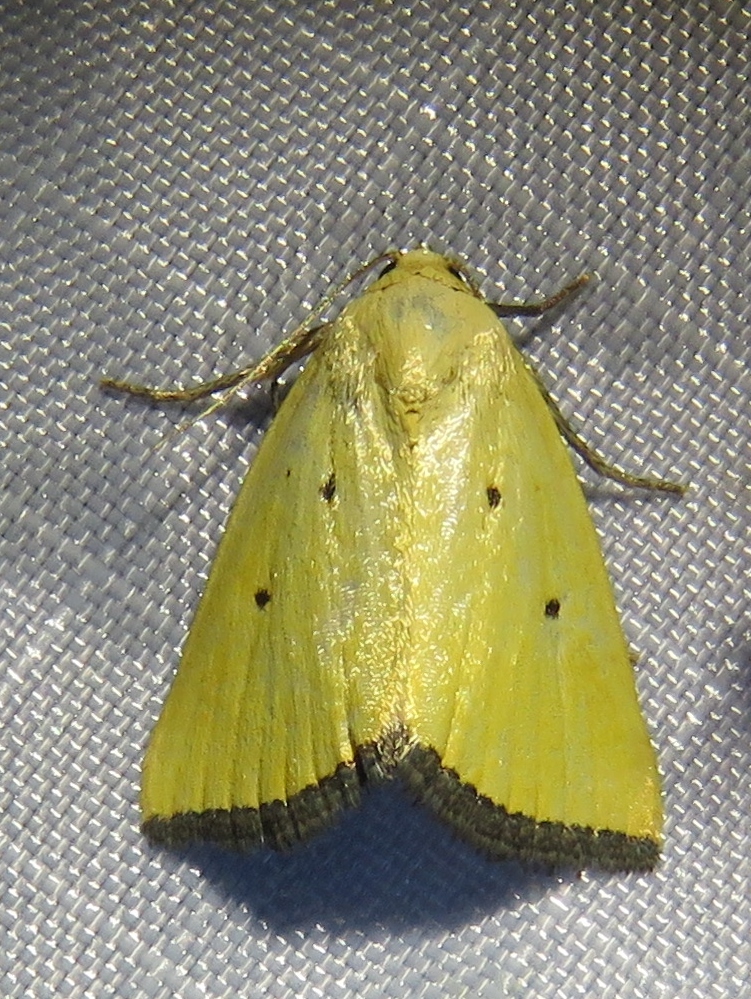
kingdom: Animalia
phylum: Arthropoda
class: Insecta
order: Lepidoptera
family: Noctuidae
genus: Marimatha
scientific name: Marimatha nigrofimbria
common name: Black-bordered lemon moth
